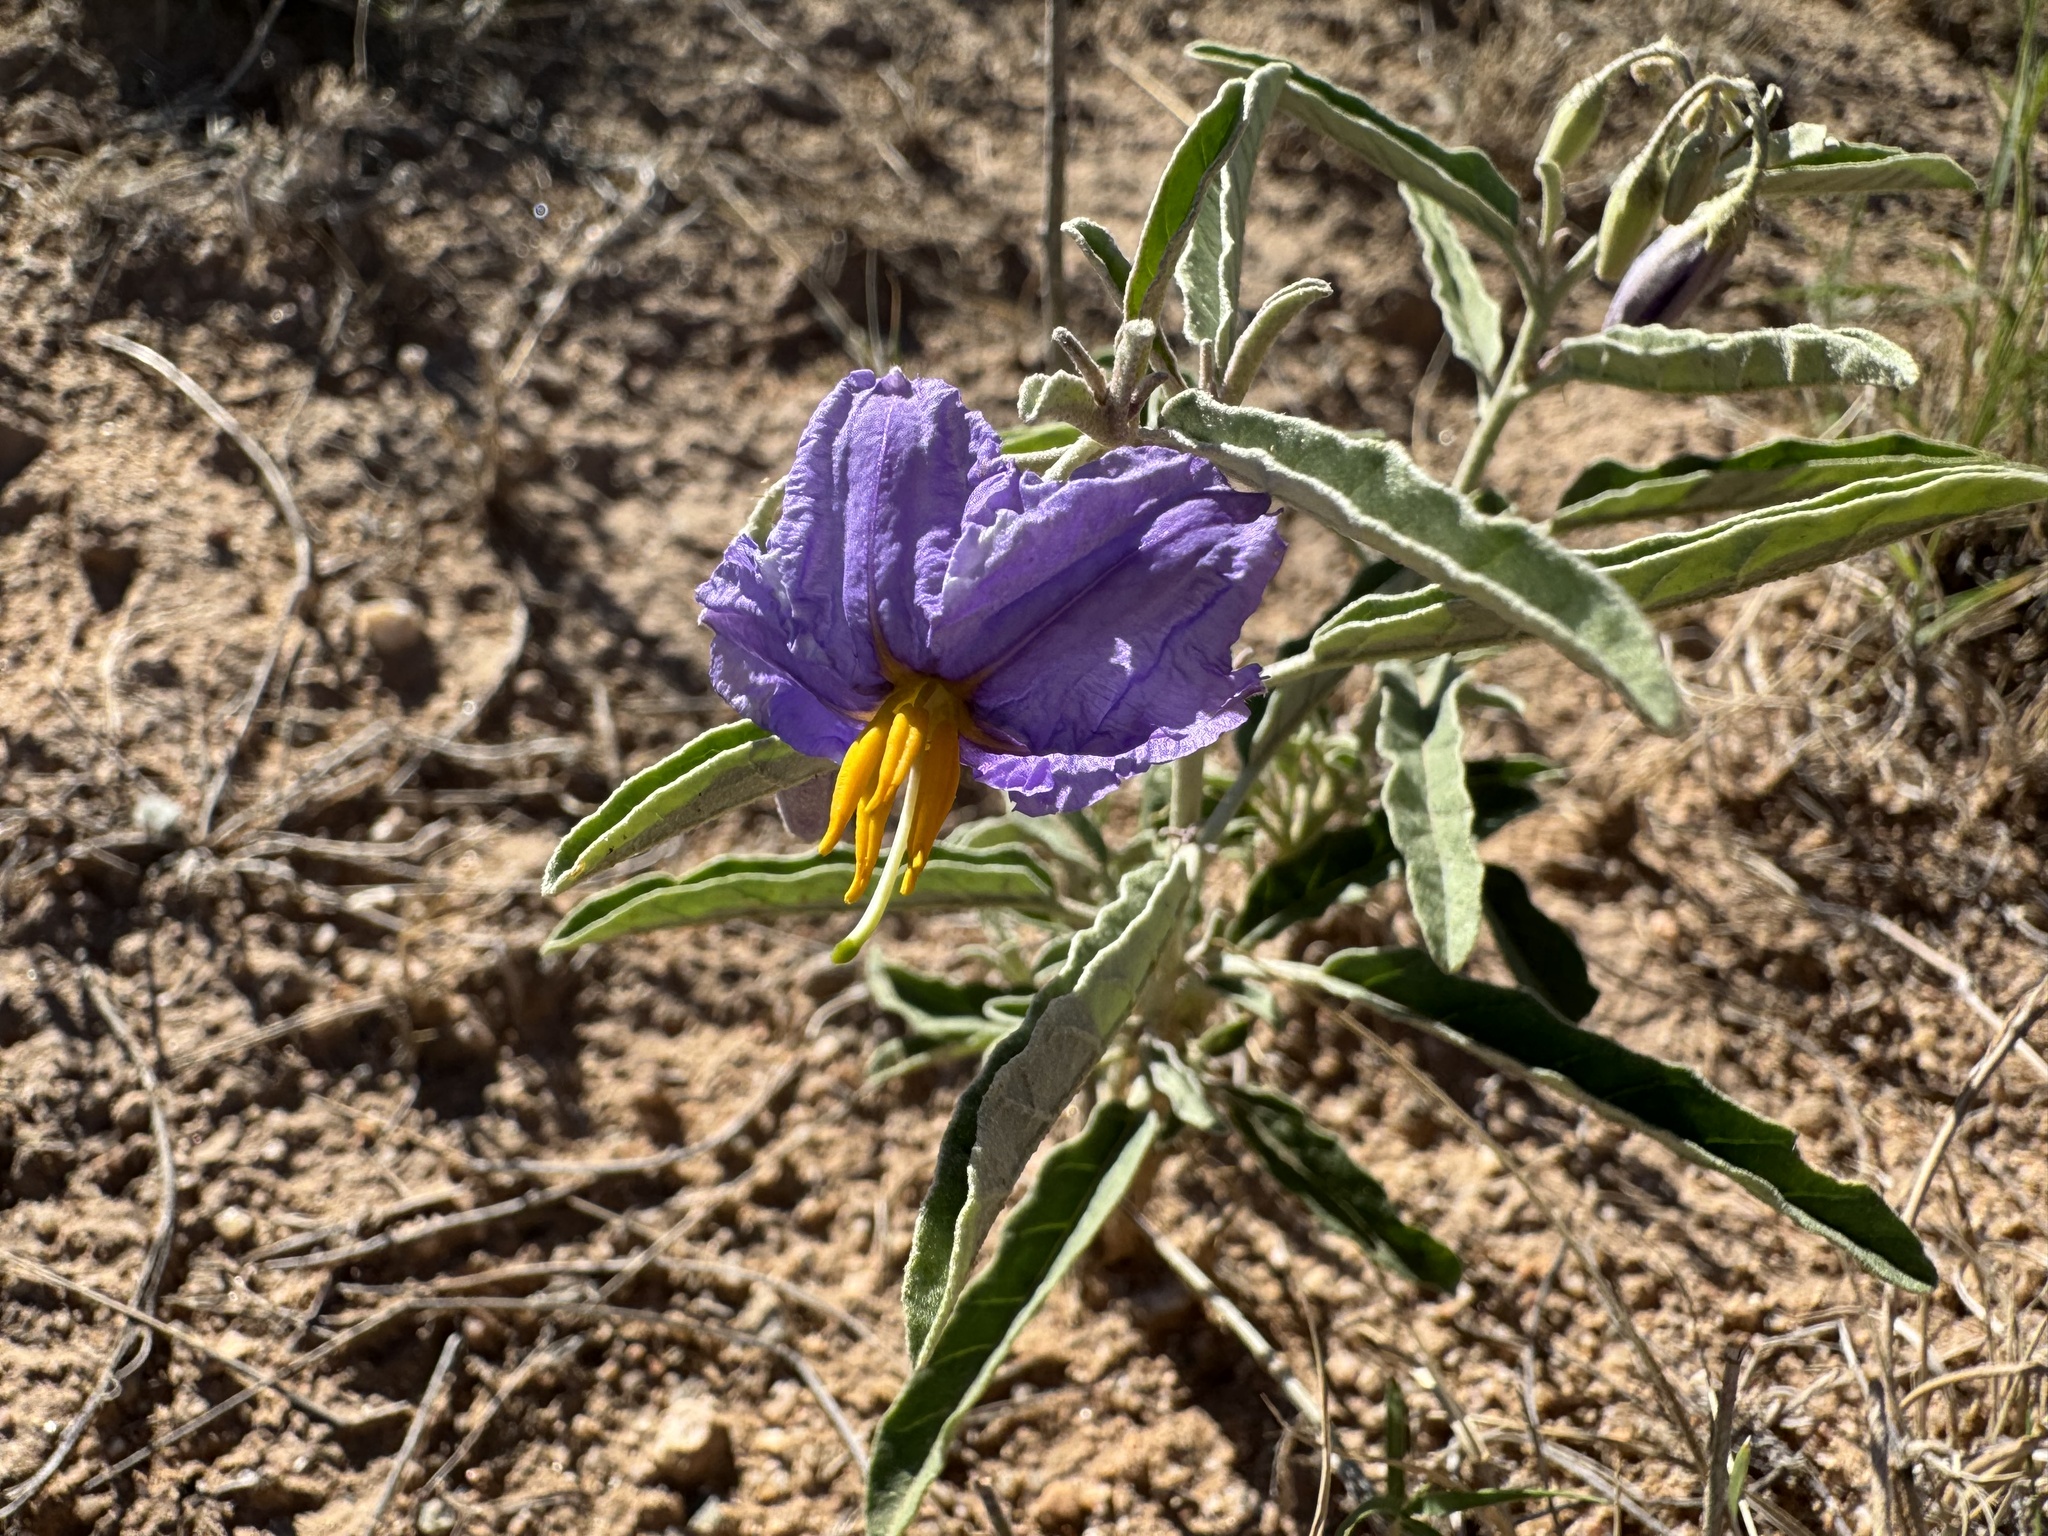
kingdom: Plantae
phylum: Tracheophyta
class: Magnoliopsida
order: Solanales
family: Solanaceae
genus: Solanum
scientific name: Solanum elaeagnifolium
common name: Silverleaf nightshade
